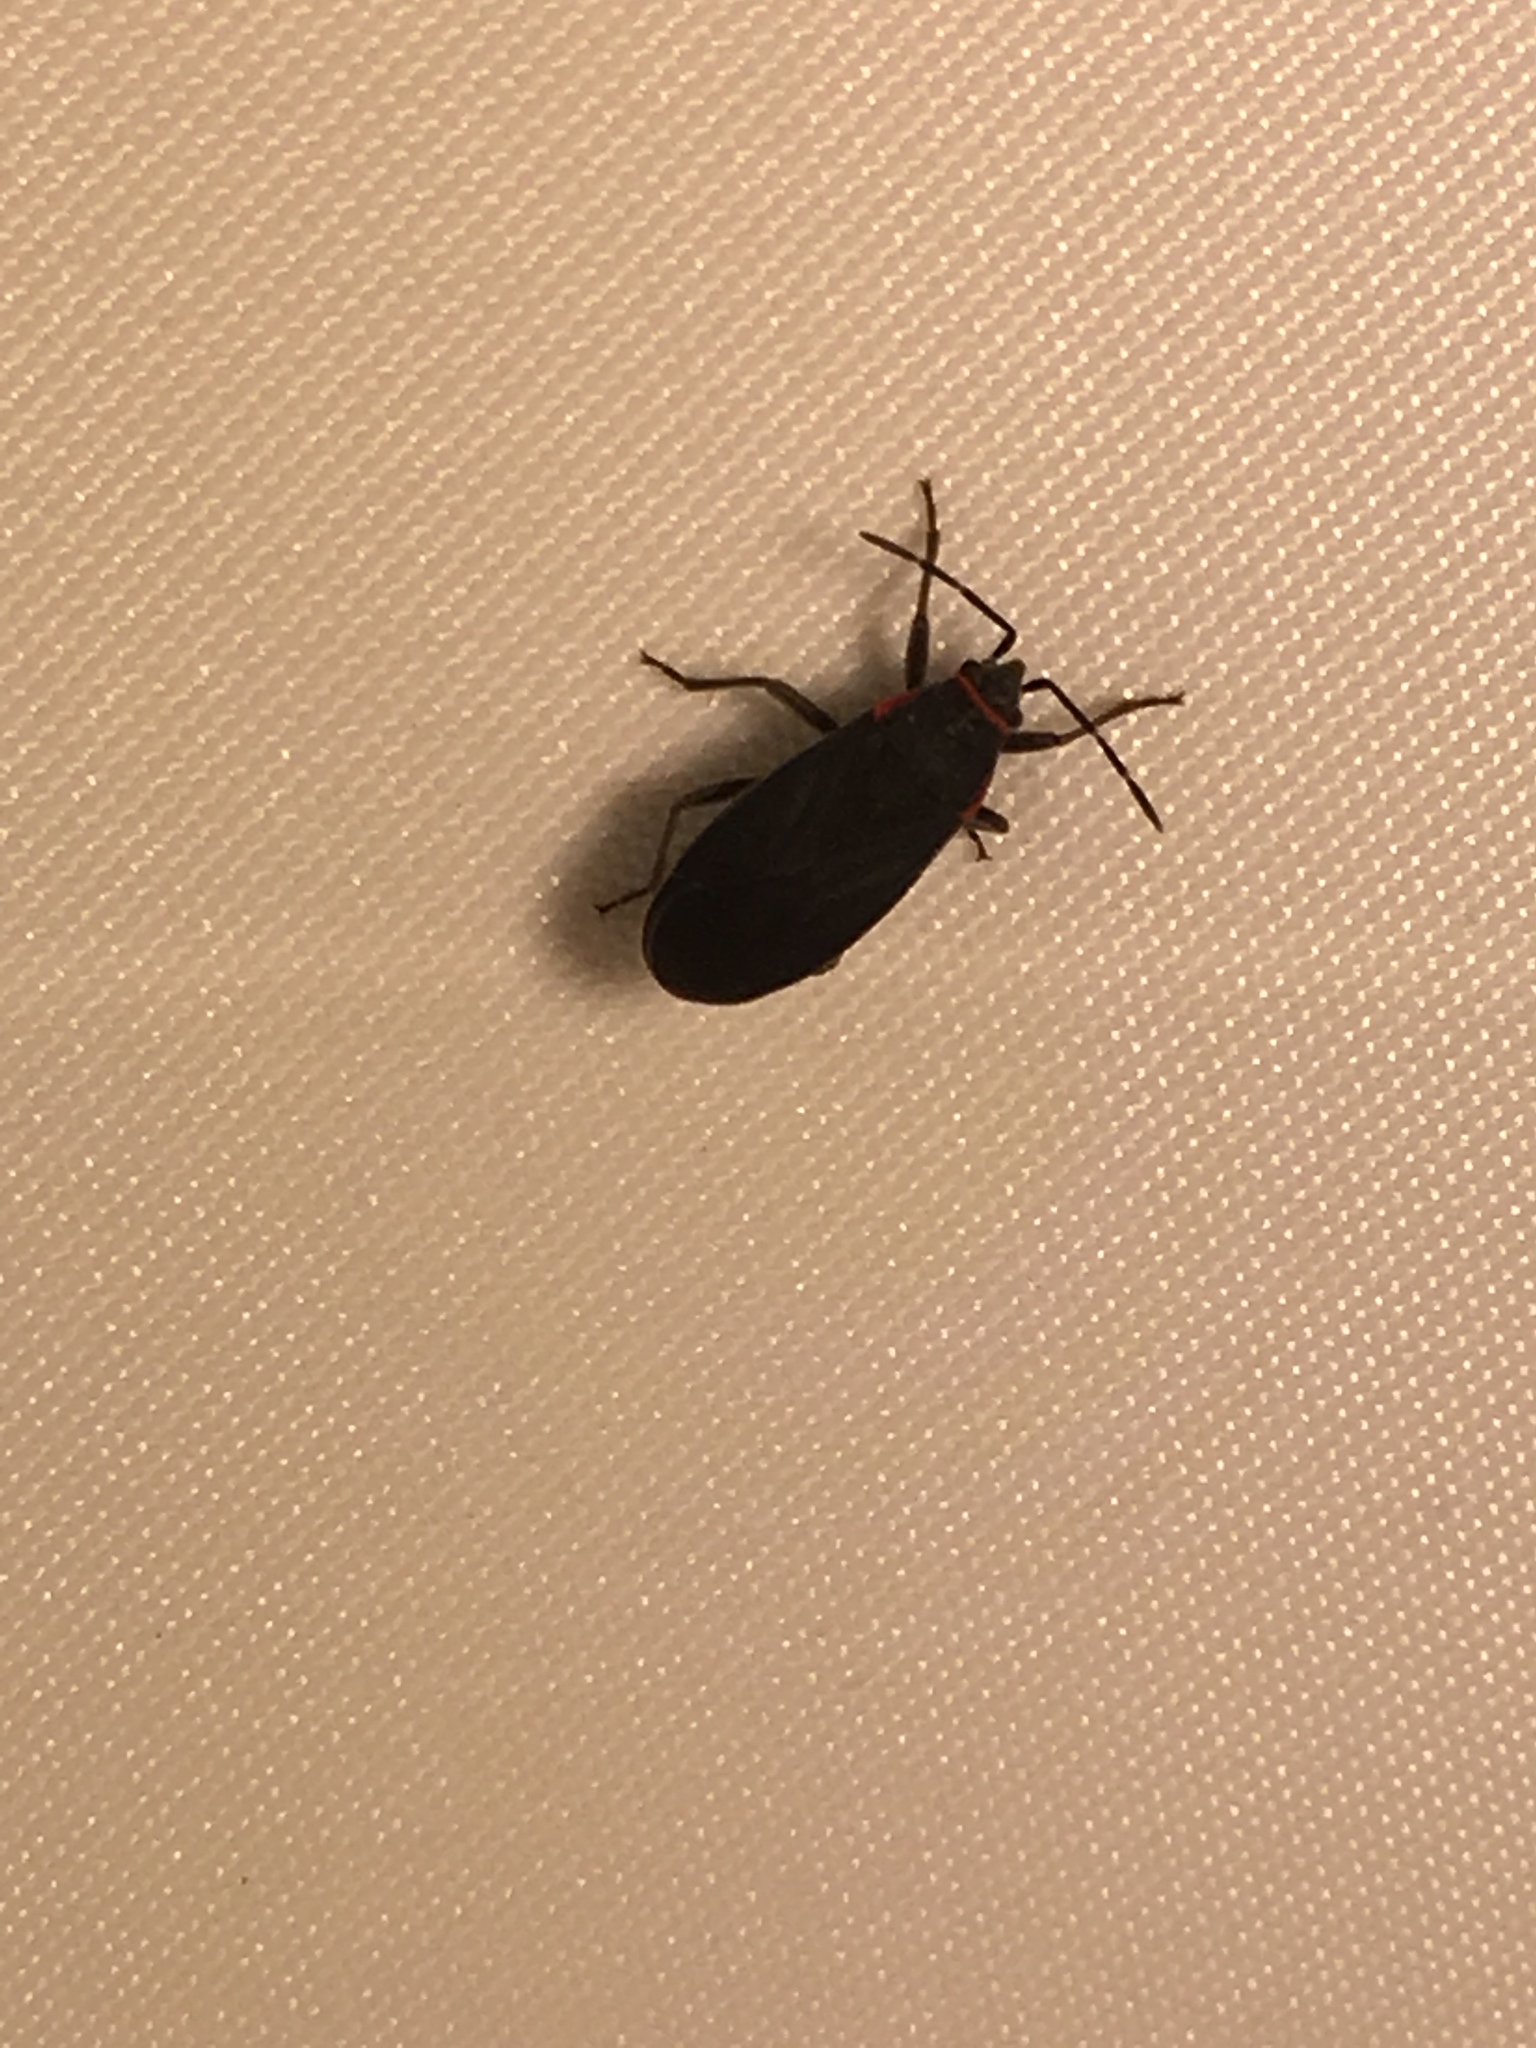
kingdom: Animalia
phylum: Arthropoda
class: Insecta
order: Hemiptera
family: Lygaeidae
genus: Melacoryphus
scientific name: Melacoryphus rubicollis
